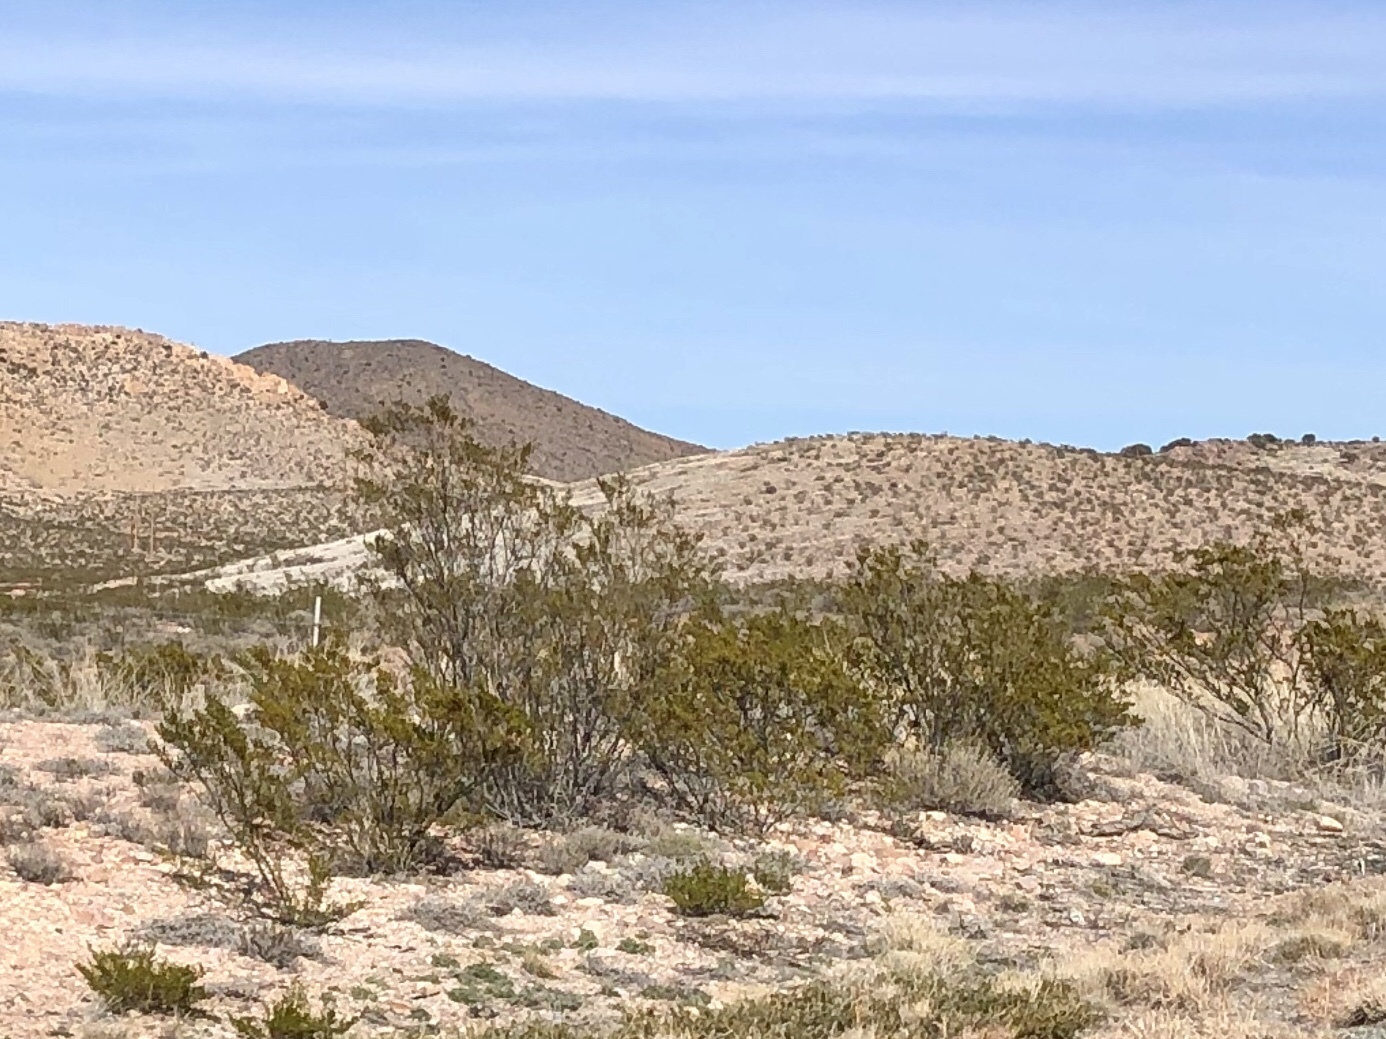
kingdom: Plantae
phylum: Tracheophyta
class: Magnoliopsida
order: Zygophyllales
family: Zygophyllaceae
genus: Larrea
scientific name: Larrea tridentata
